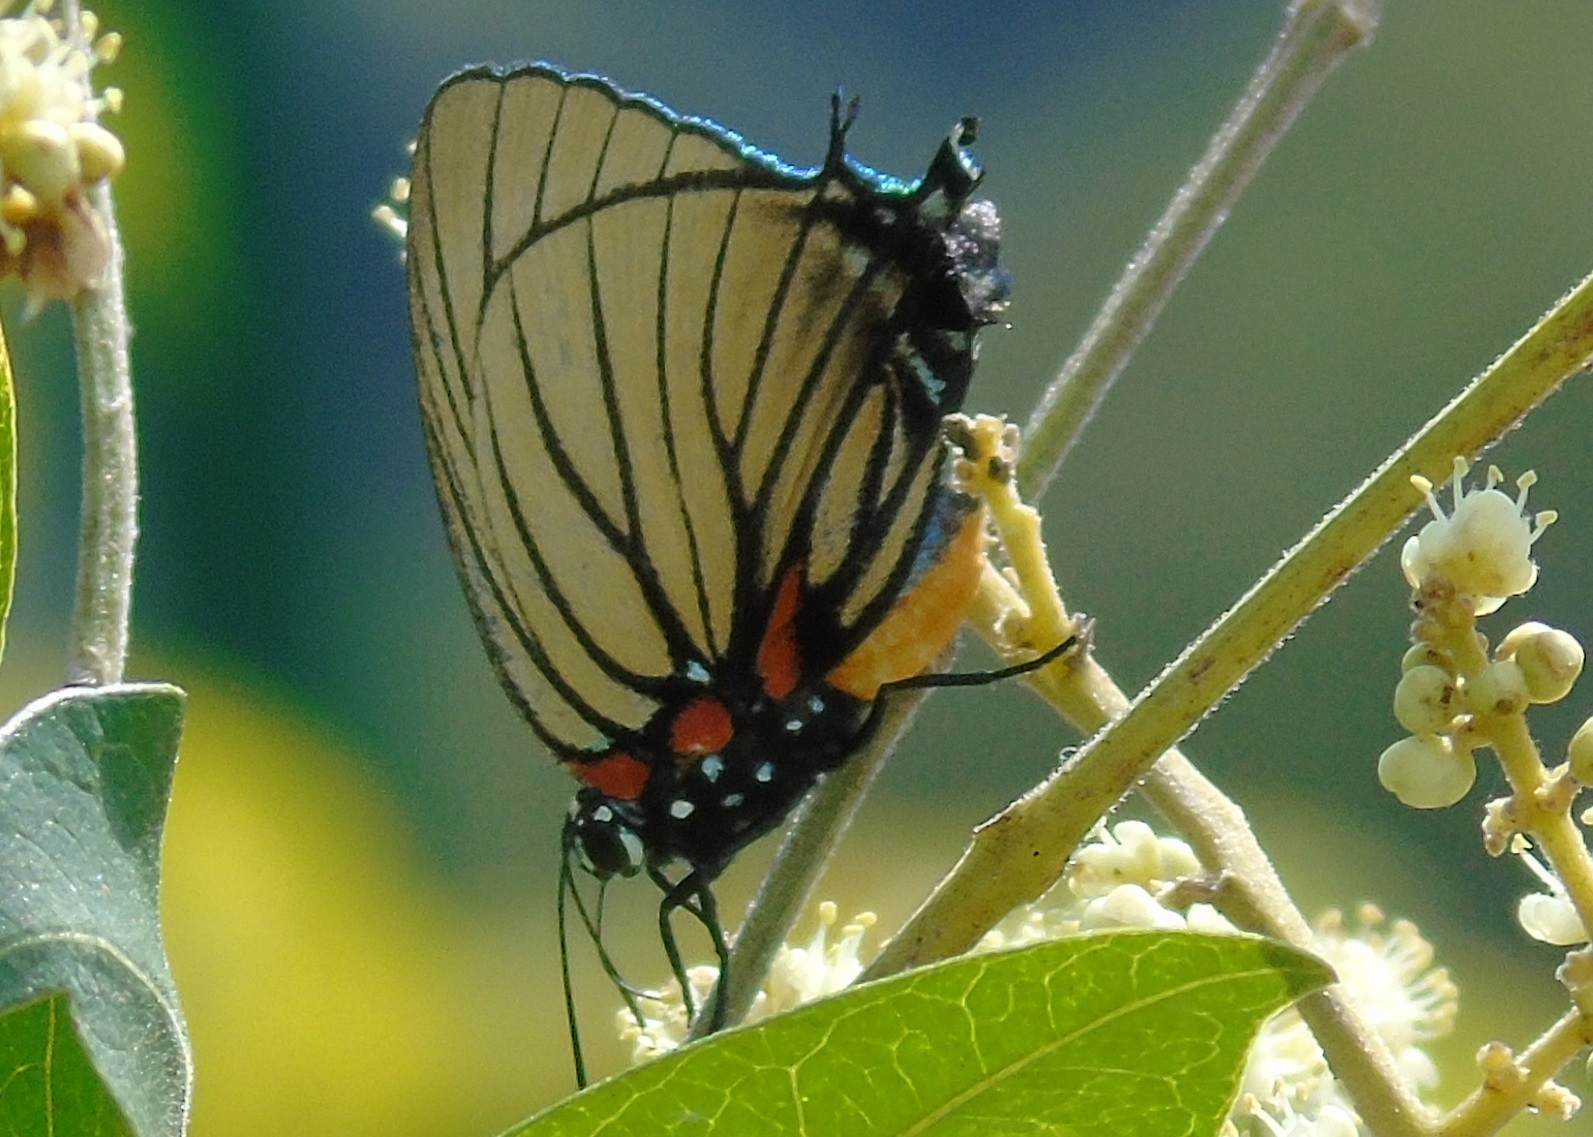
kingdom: Animalia
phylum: Arthropoda
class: Insecta
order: Lepidoptera
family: Lycaenidae
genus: Thecla
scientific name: Thecla polybe
